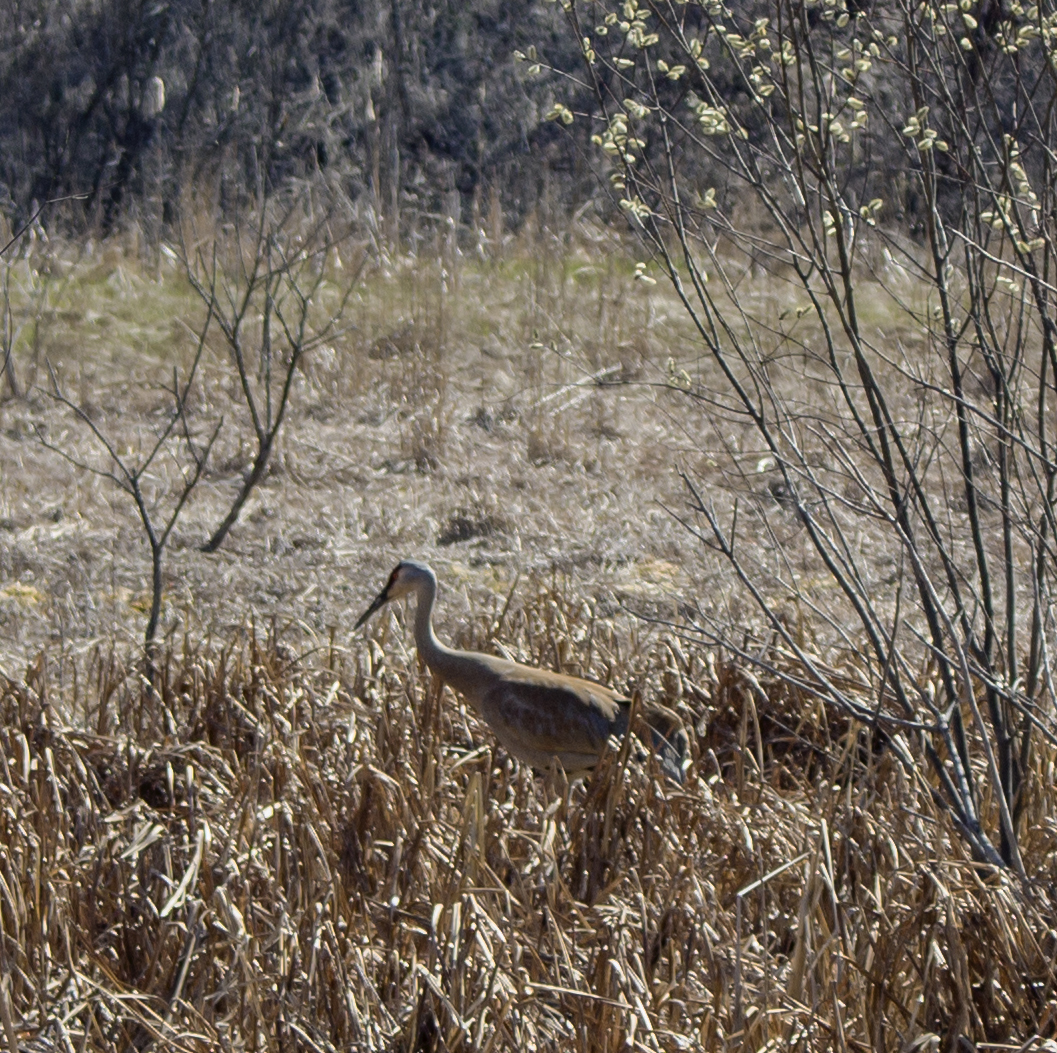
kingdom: Animalia
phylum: Chordata
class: Aves
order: Gruiformes
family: Gruidae
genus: Grus
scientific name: Grus canadensis
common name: Sandhill crane
